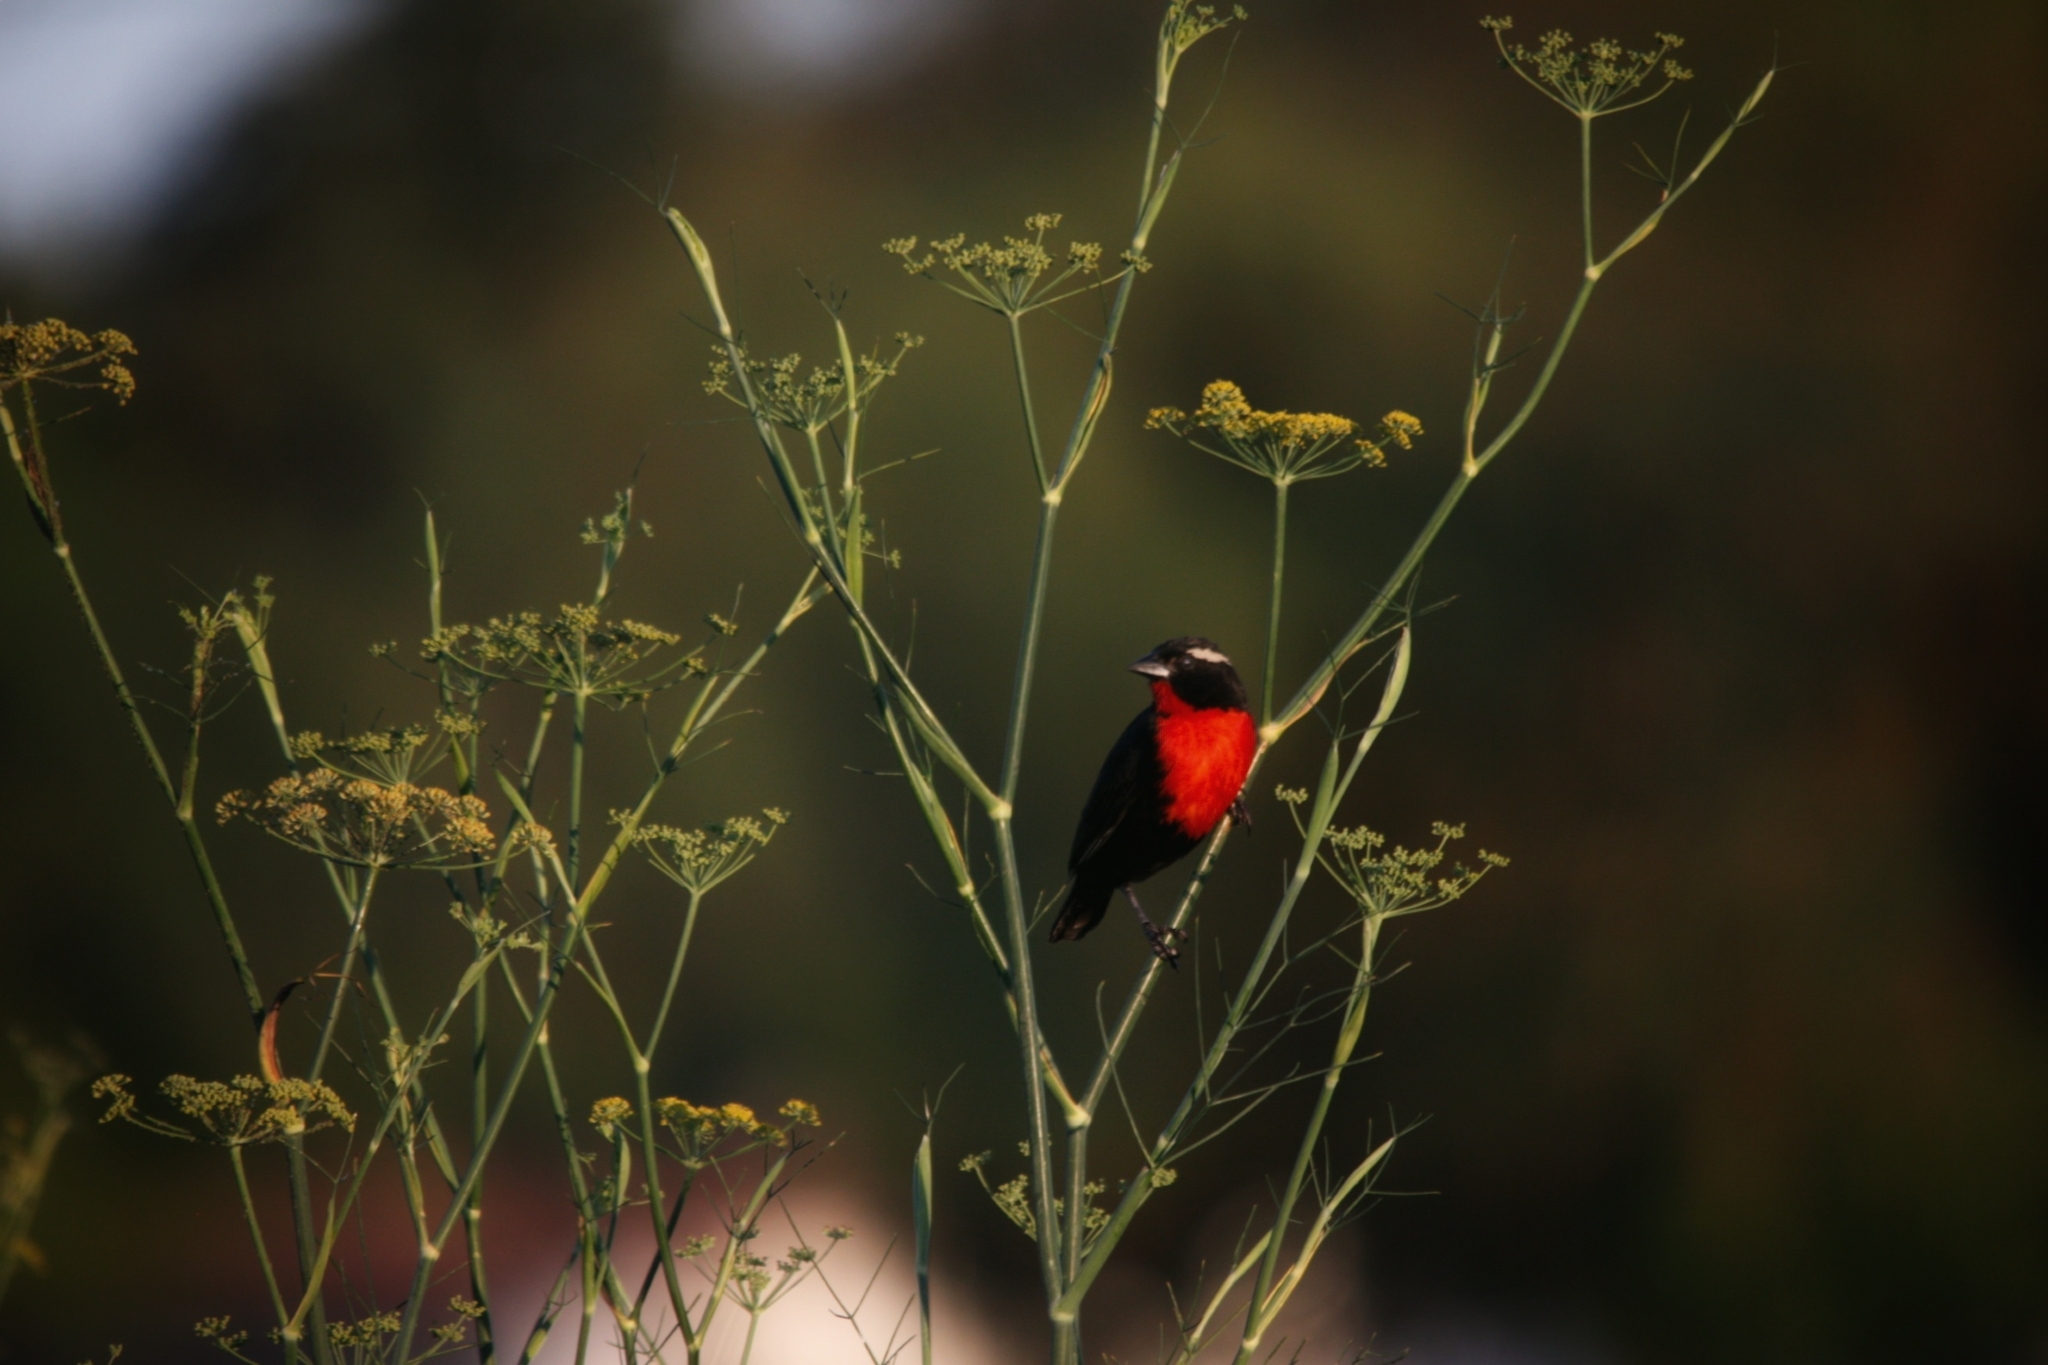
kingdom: Animalia
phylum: Chordata
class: Aves
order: Passeriformes
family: Icteridae
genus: Sturnella
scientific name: Sturnella superciliaris
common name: White-browed blackbird
